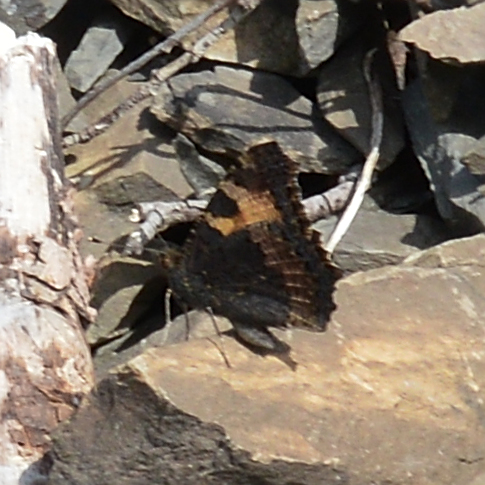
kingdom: Animalia
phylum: Arthropoda
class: Insecta
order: Lepidoptera
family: Nymphalidae
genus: Aglais
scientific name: Aglais urticae
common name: Small tortoiseshell
